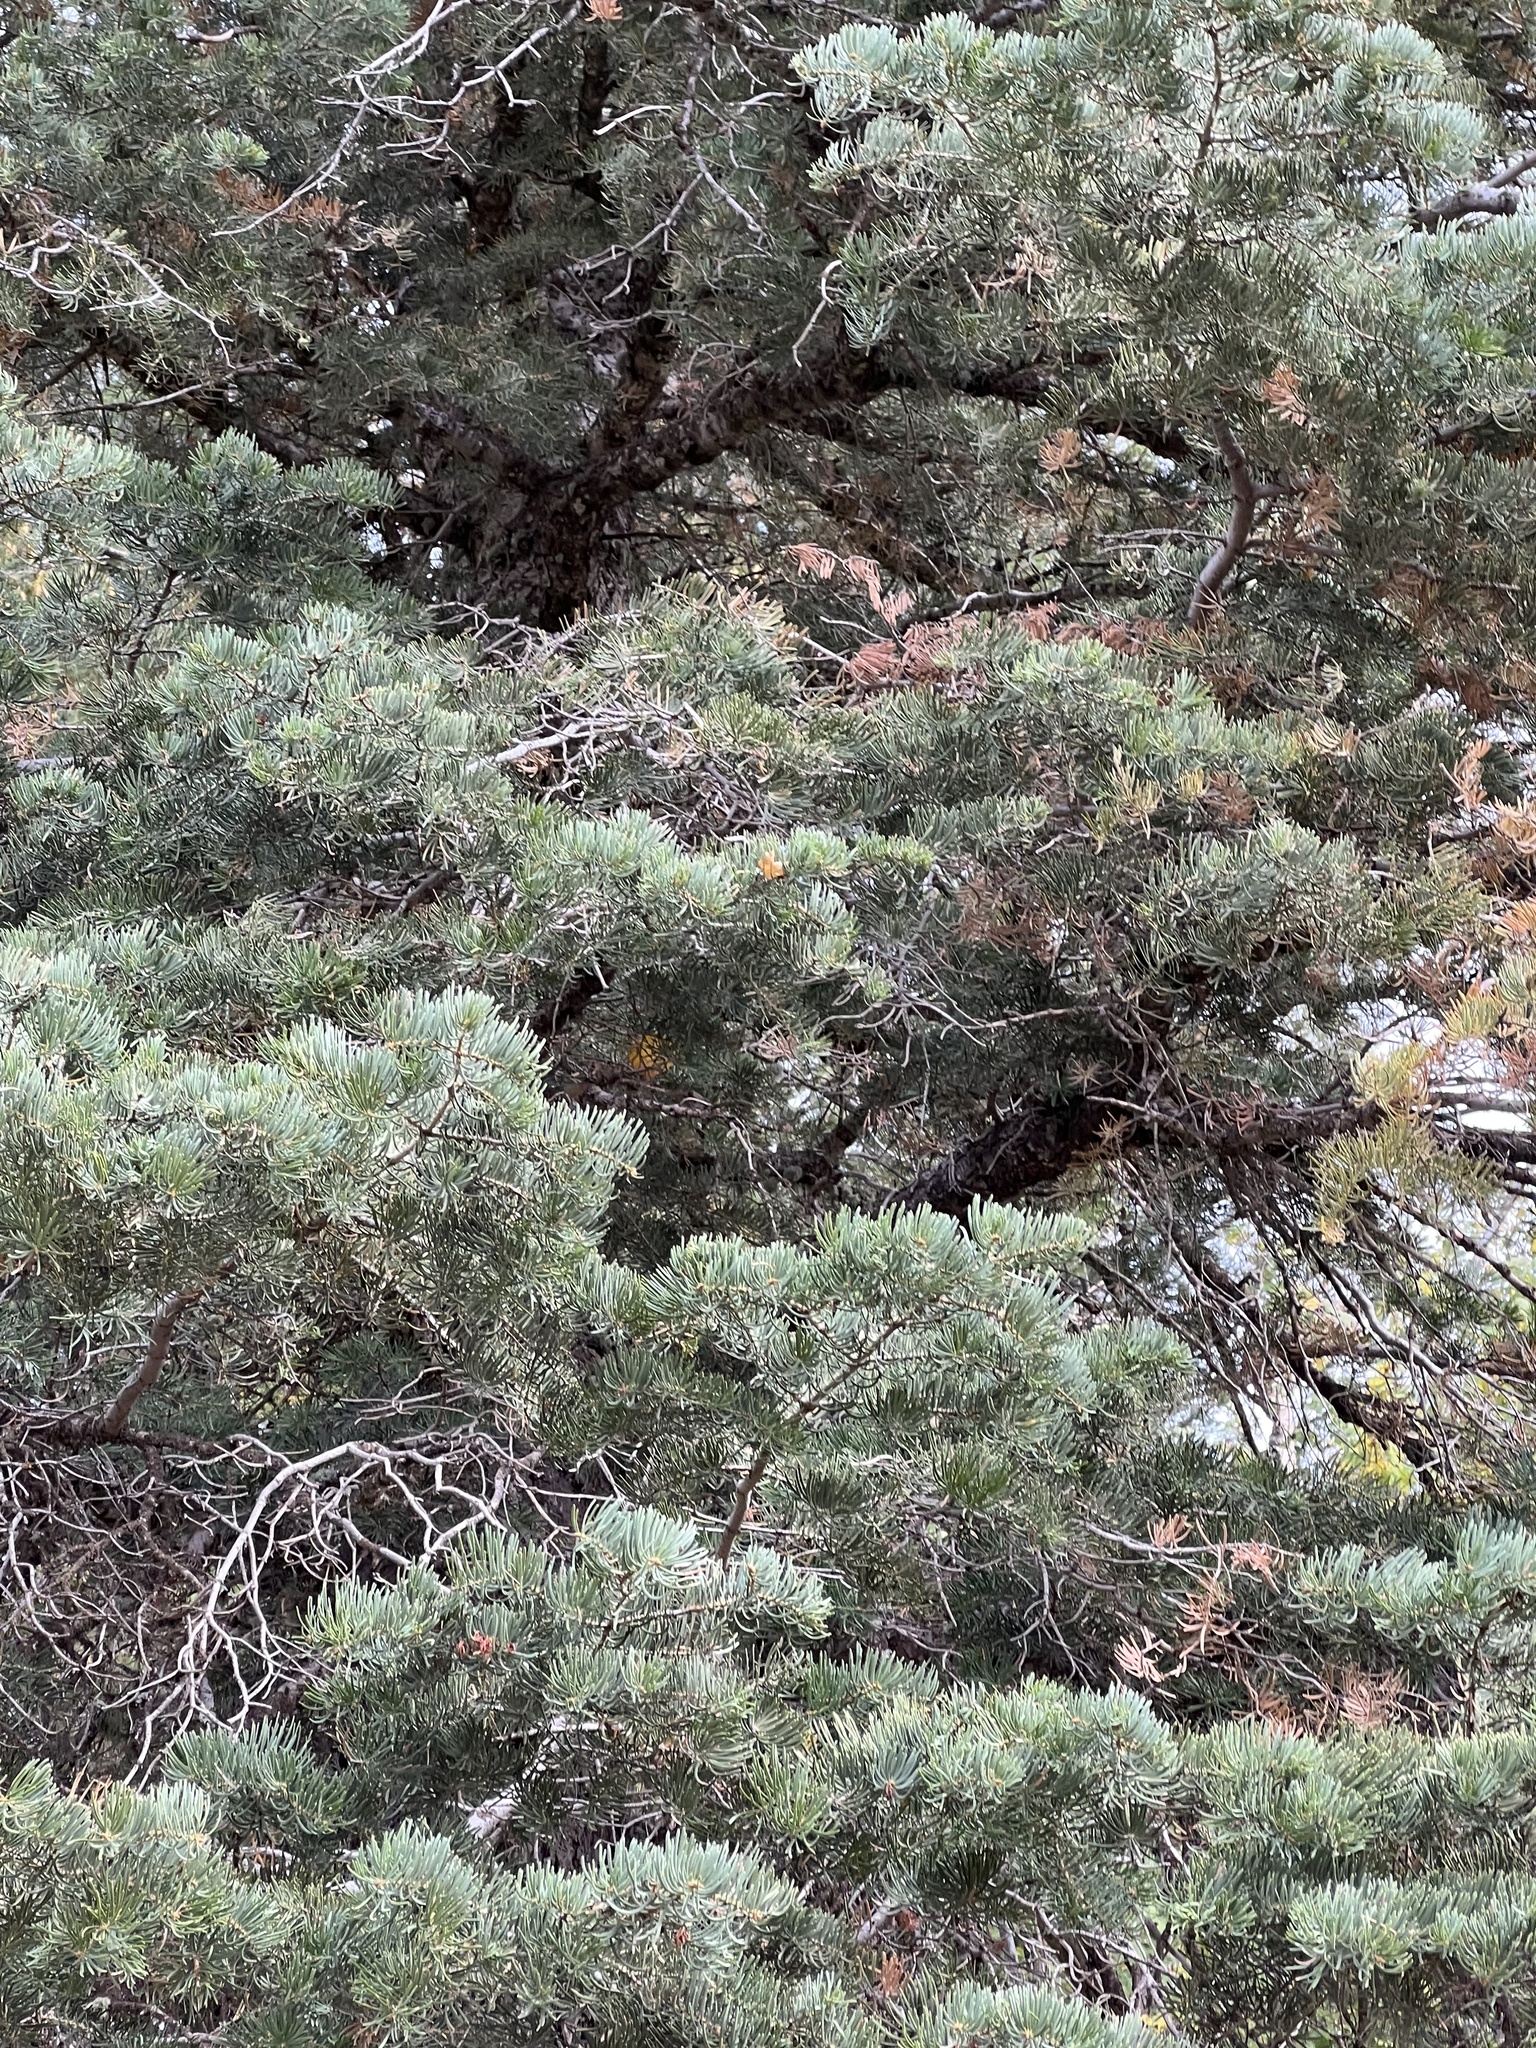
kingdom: Plantae
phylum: Tracheophyta
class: Pinopsida
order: Pinales
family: Pinaceae
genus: Abies
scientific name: Abies concolor
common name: Colorado fir
